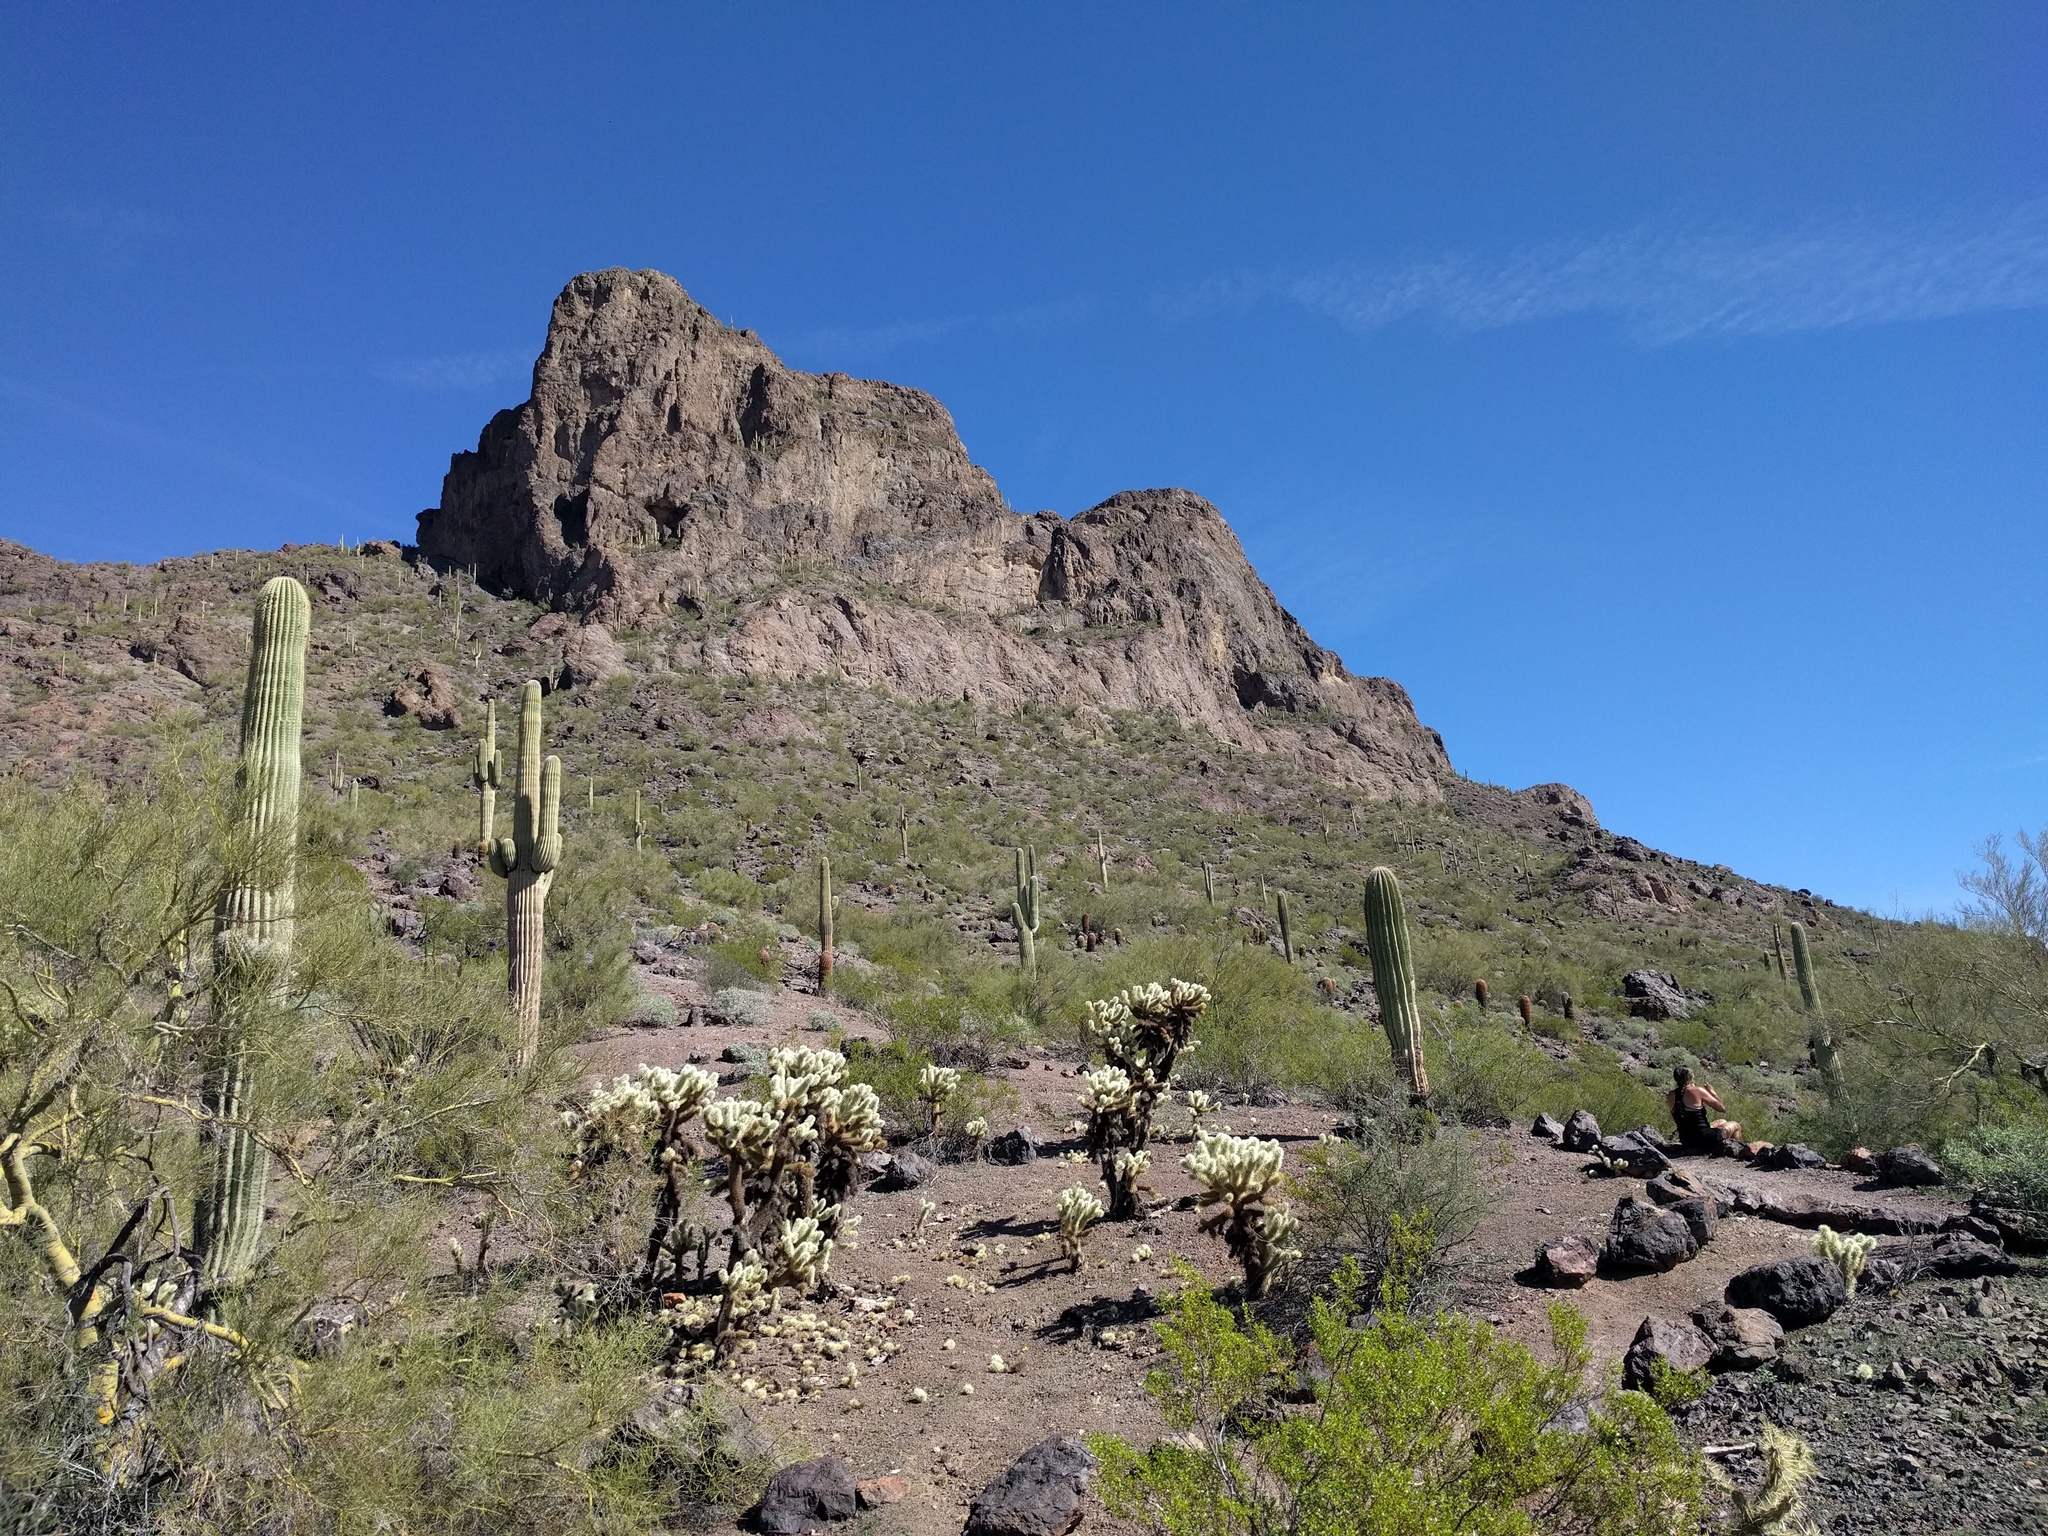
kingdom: Plantae
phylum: Tracheophyta
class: Magnoliopsida
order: Caryophyllales
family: Cactaceae
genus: Cylindropuntia
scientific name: Cylindropuntia fosbergii
